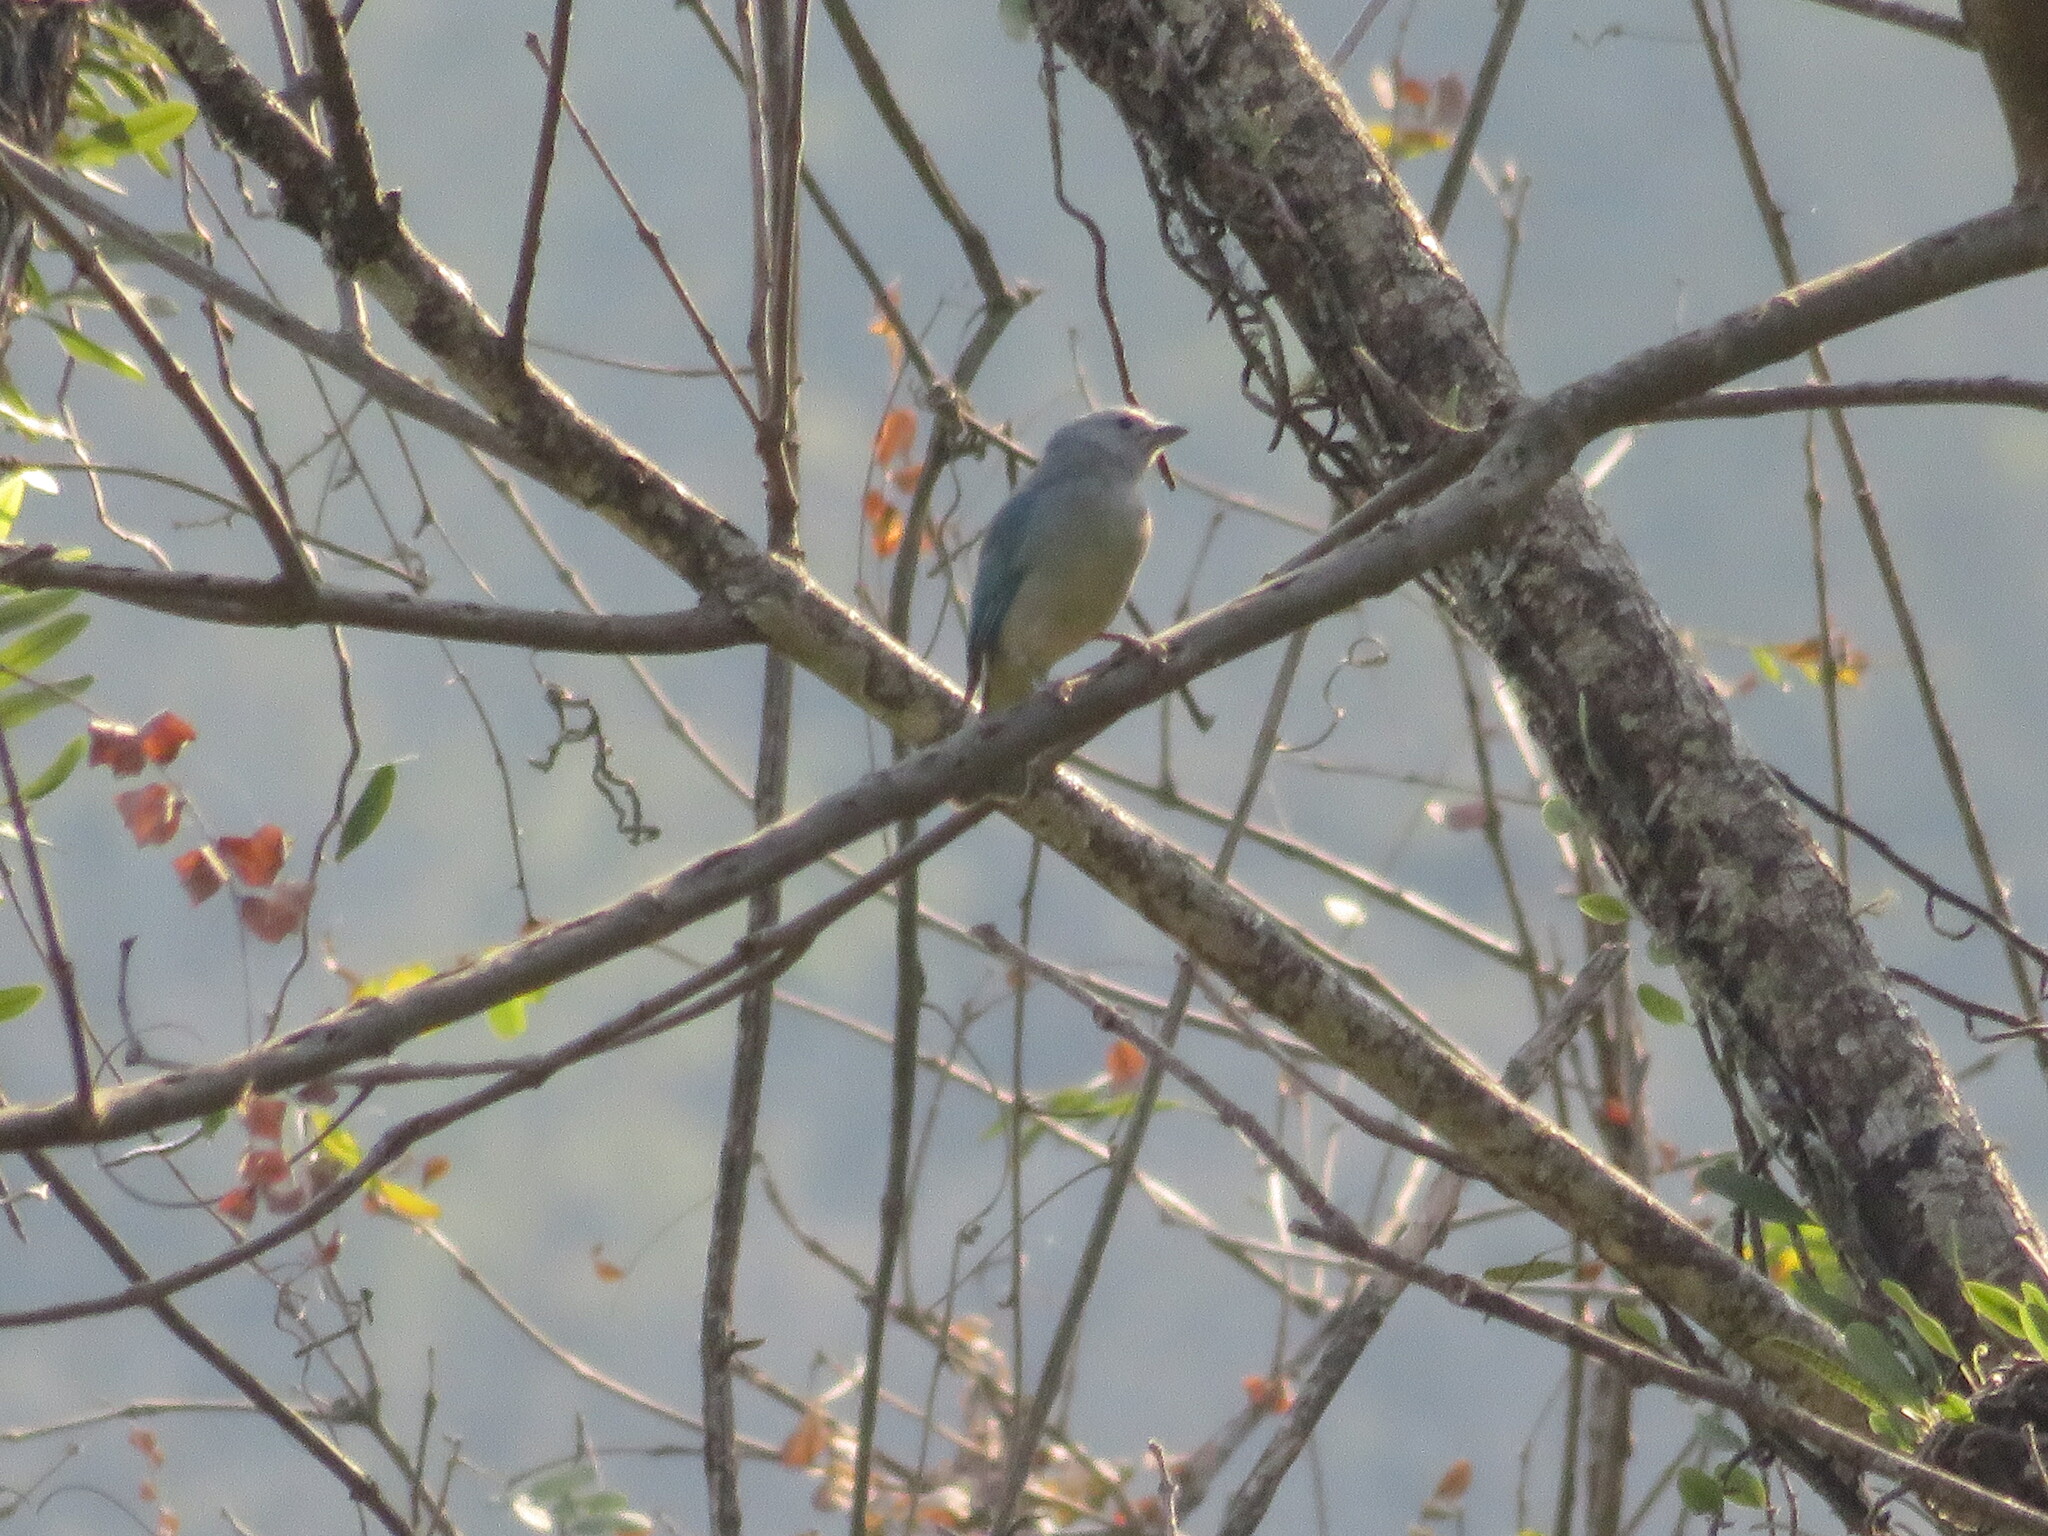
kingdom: Animalia
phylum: Chordata
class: Aves
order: Passeriformes
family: Thraupidae
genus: Thraupis
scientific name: Thraupis sayaca
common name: Sayaca tanager
